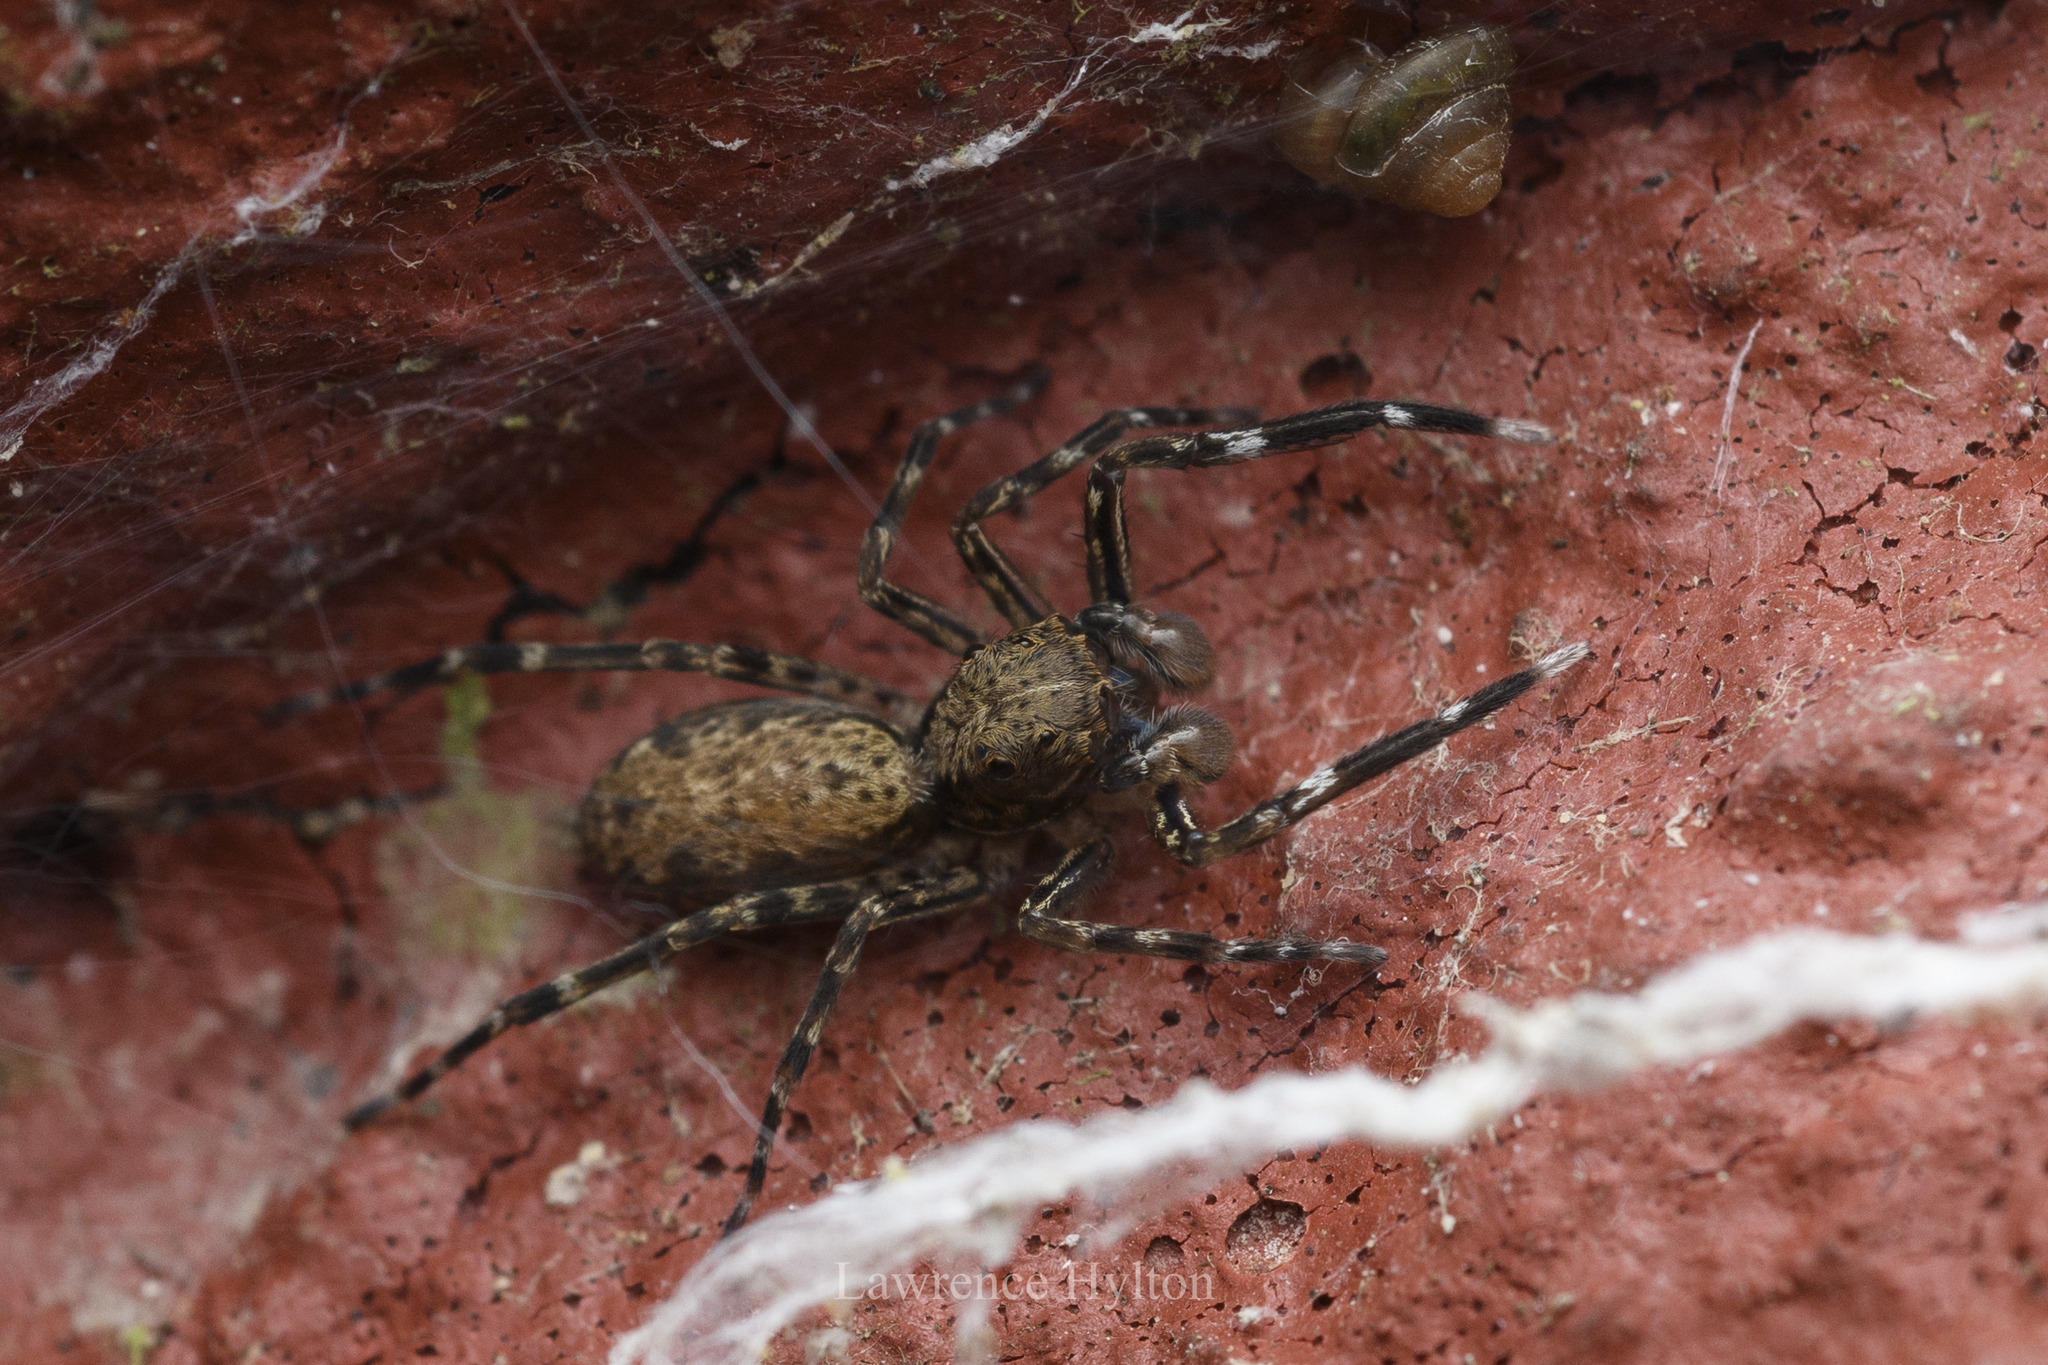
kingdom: Animalia
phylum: Arthropoda
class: Arachnida
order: Araneae
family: Salticidae
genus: Spartaeus
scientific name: Spartaeus spinimanus
